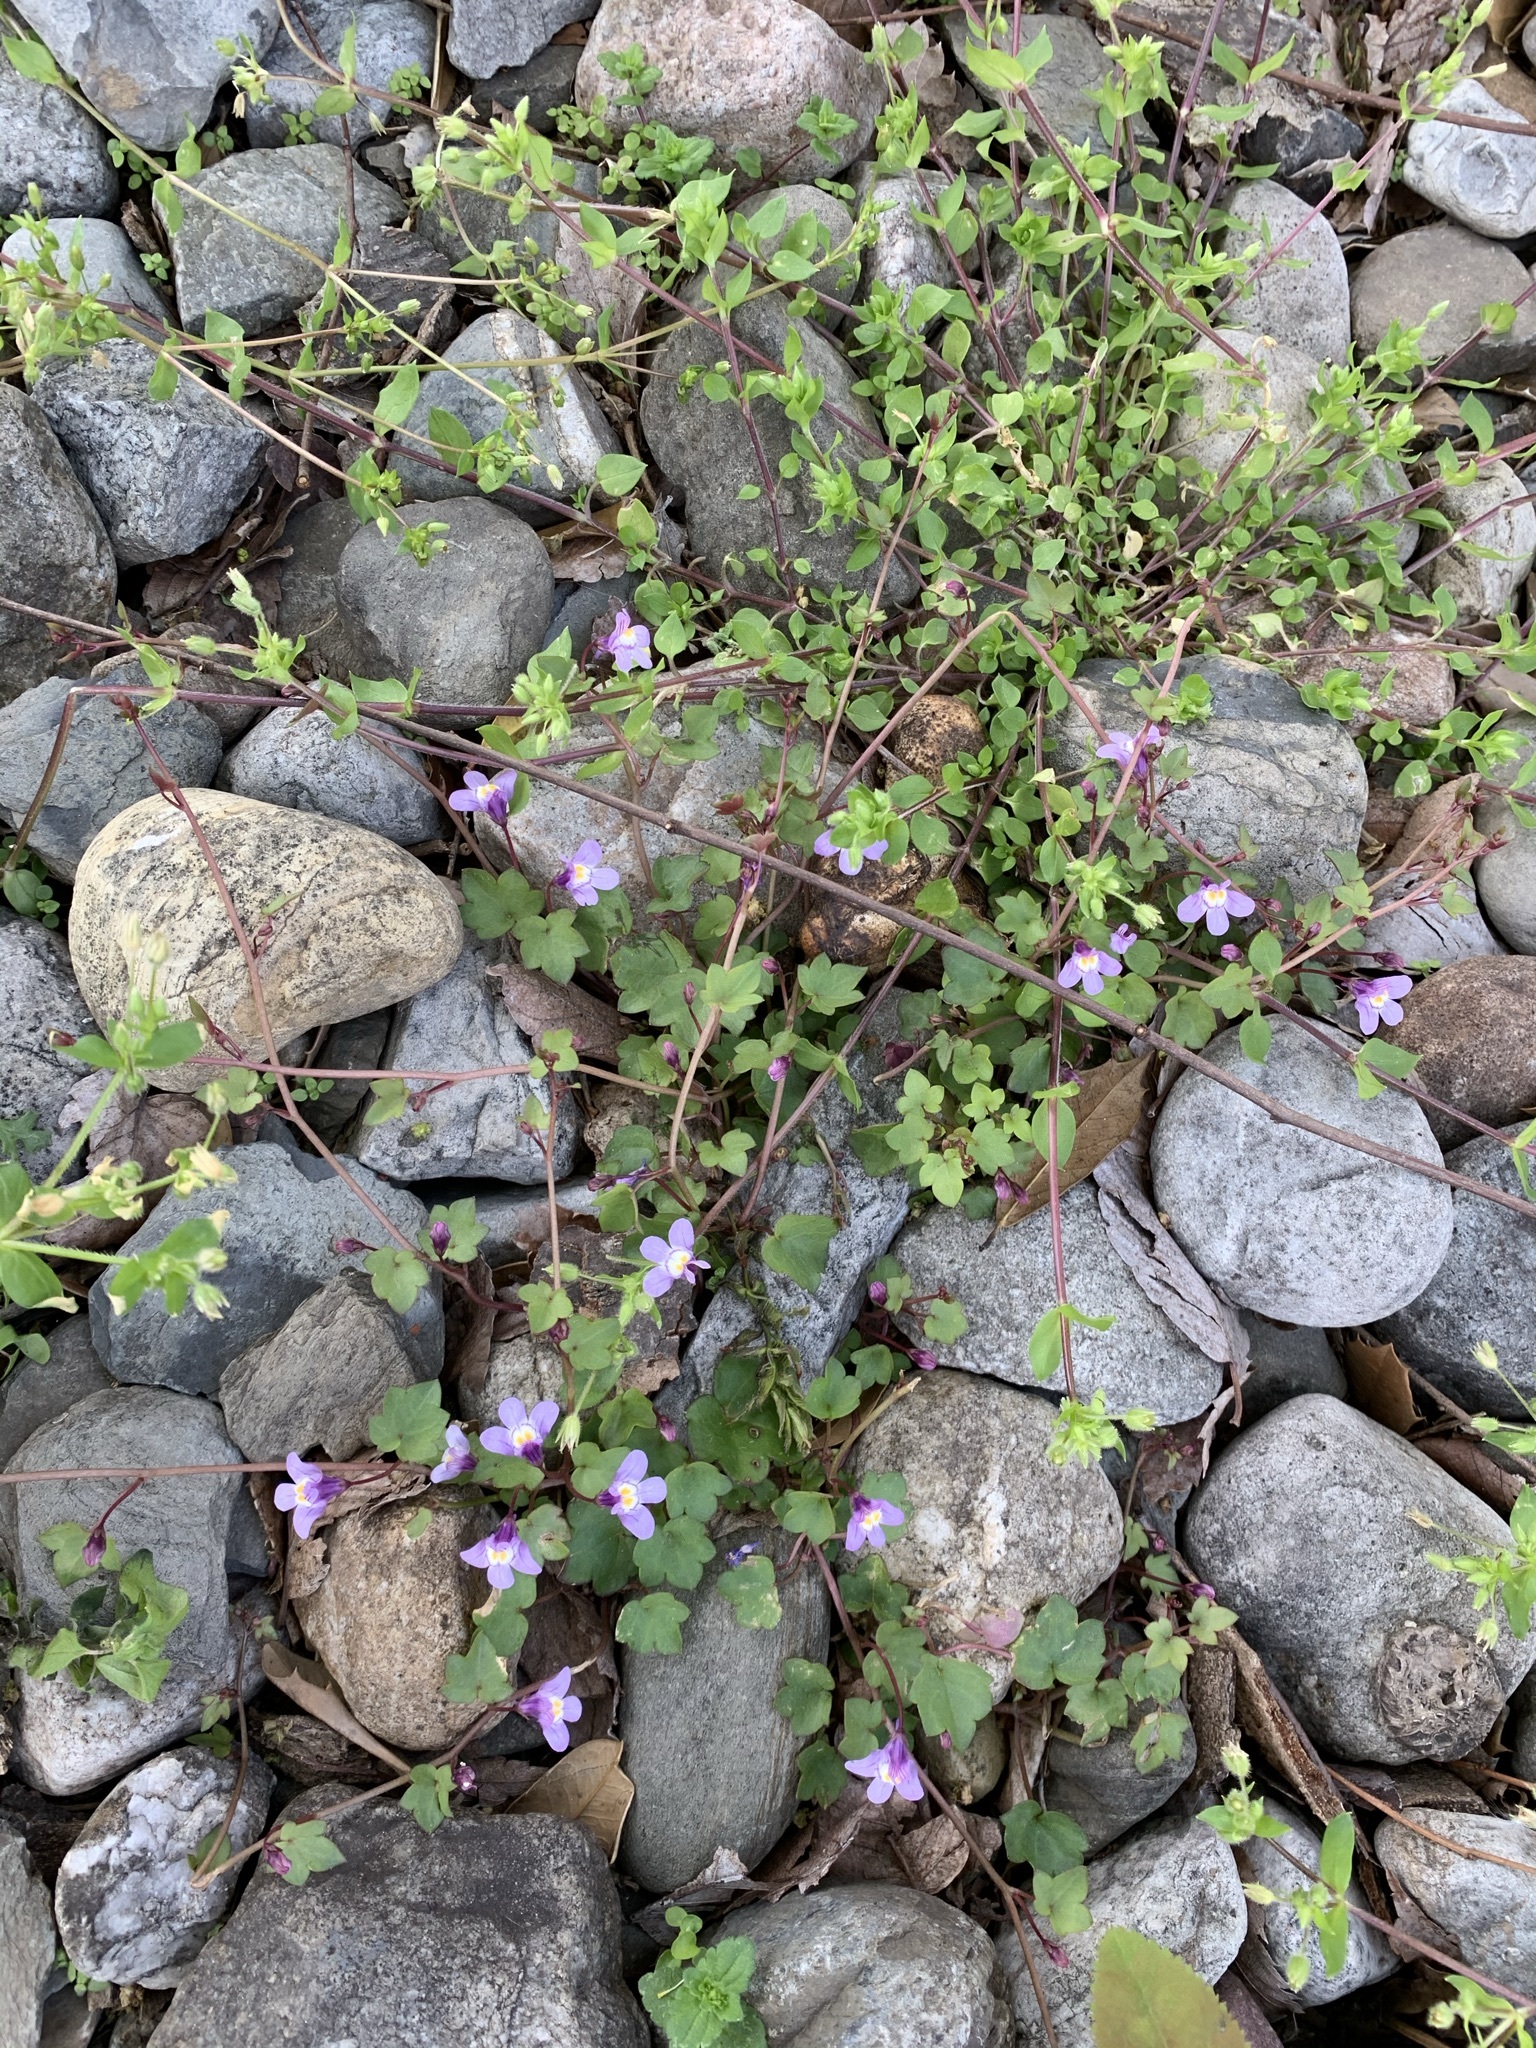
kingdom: Plantae
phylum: Tracheophyta
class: Magnoliopsida
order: Lamiales
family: Plantaginaceae
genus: Cymbalaria
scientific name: Cymbalaria muralis
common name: Ivy-leaved toadflax
